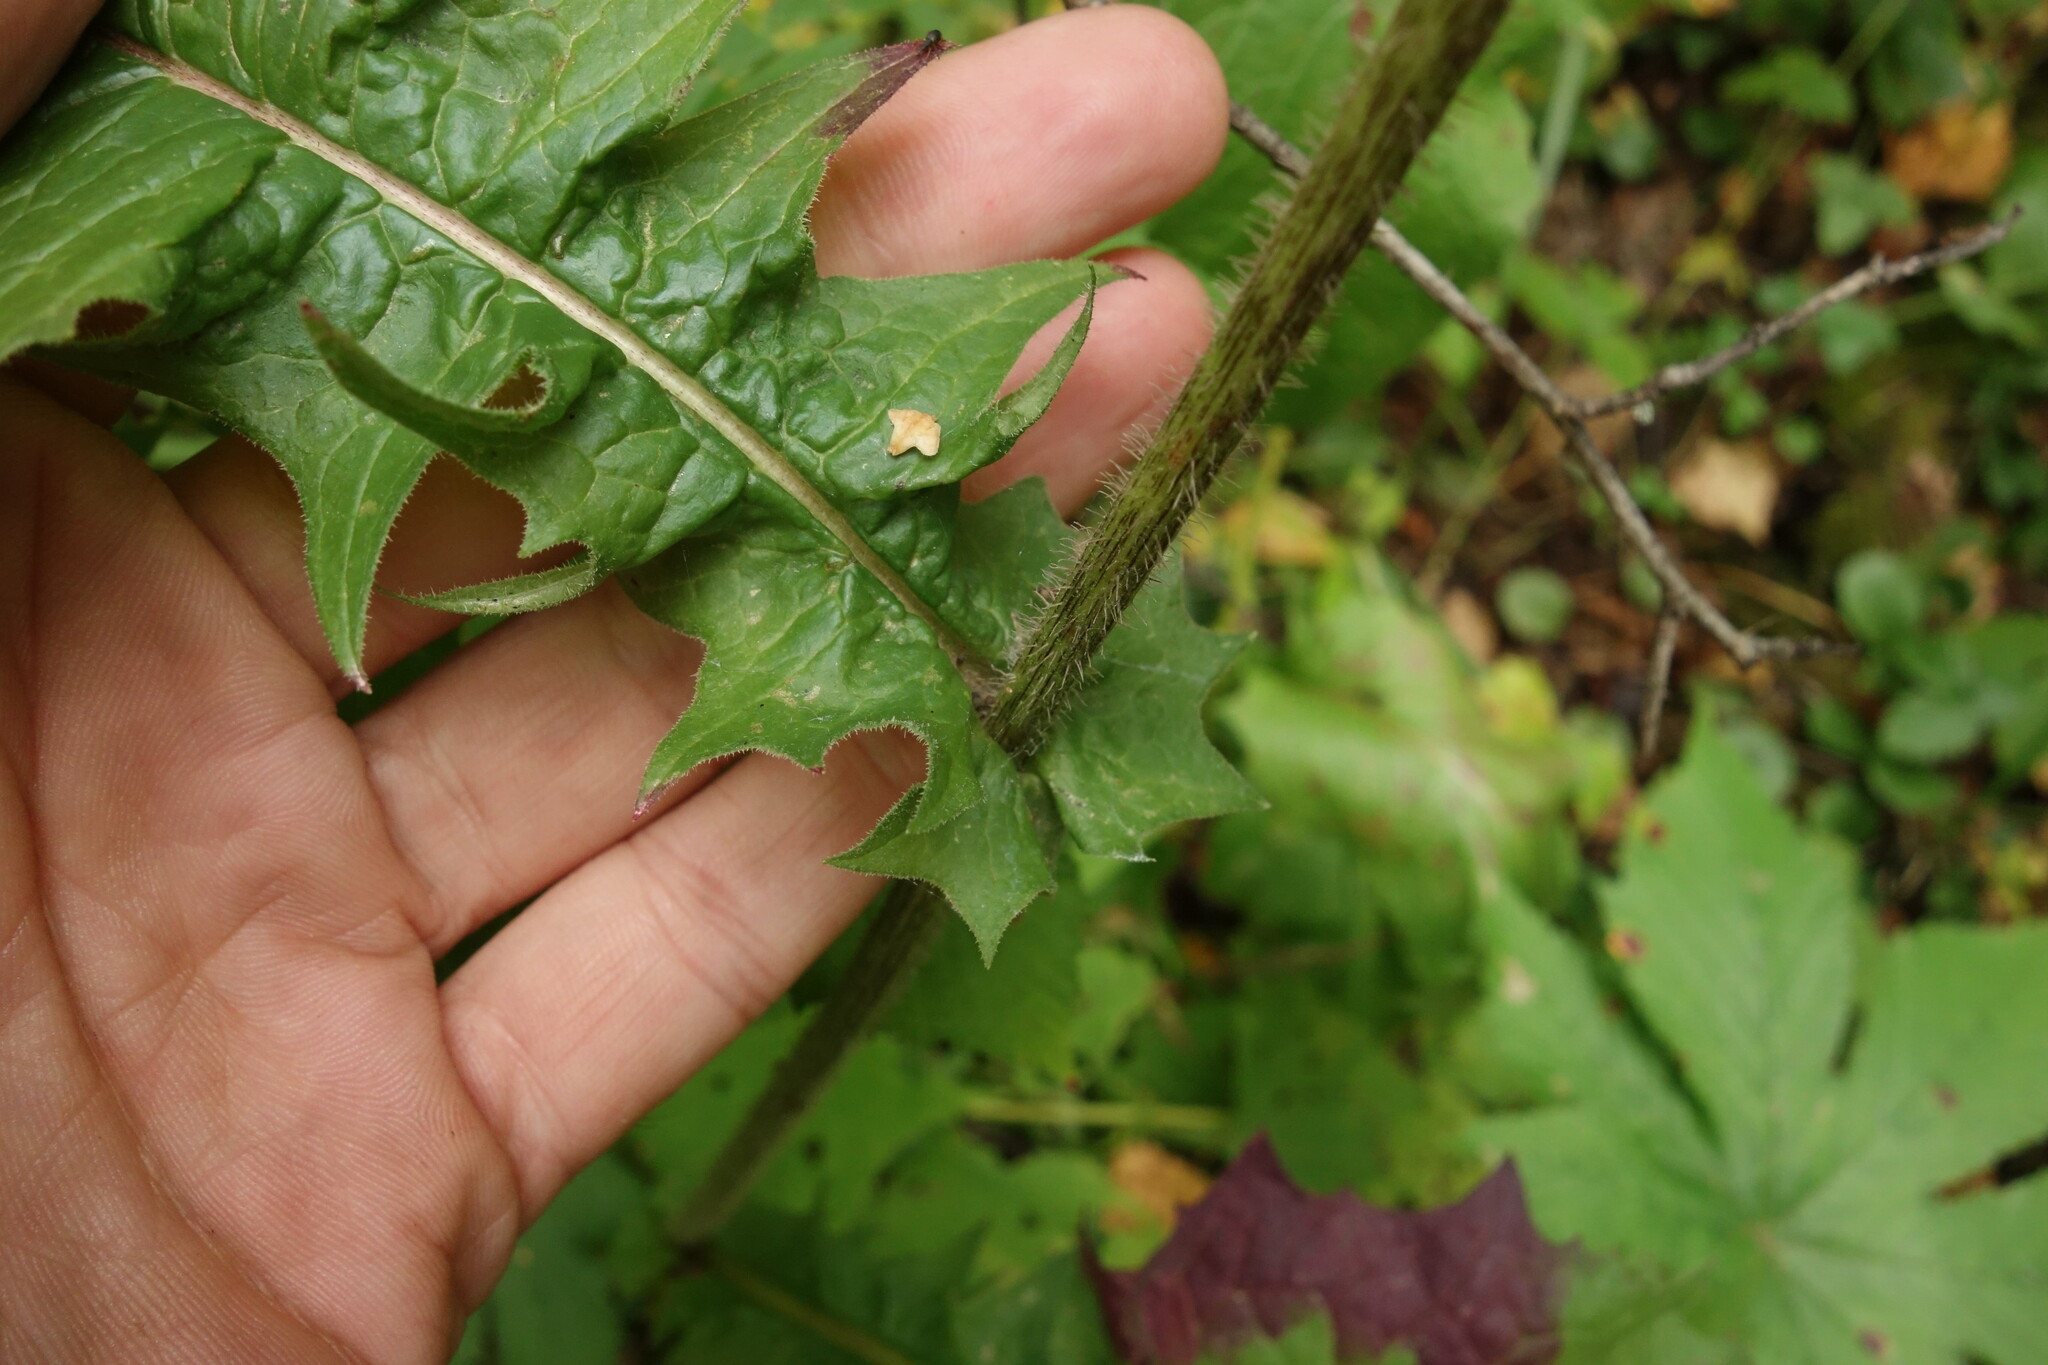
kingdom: Plantae
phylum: Tracheophyta
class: Magnoliopsida
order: Asterales
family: Asteraceae
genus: Crepis
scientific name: Crepis sibirica
